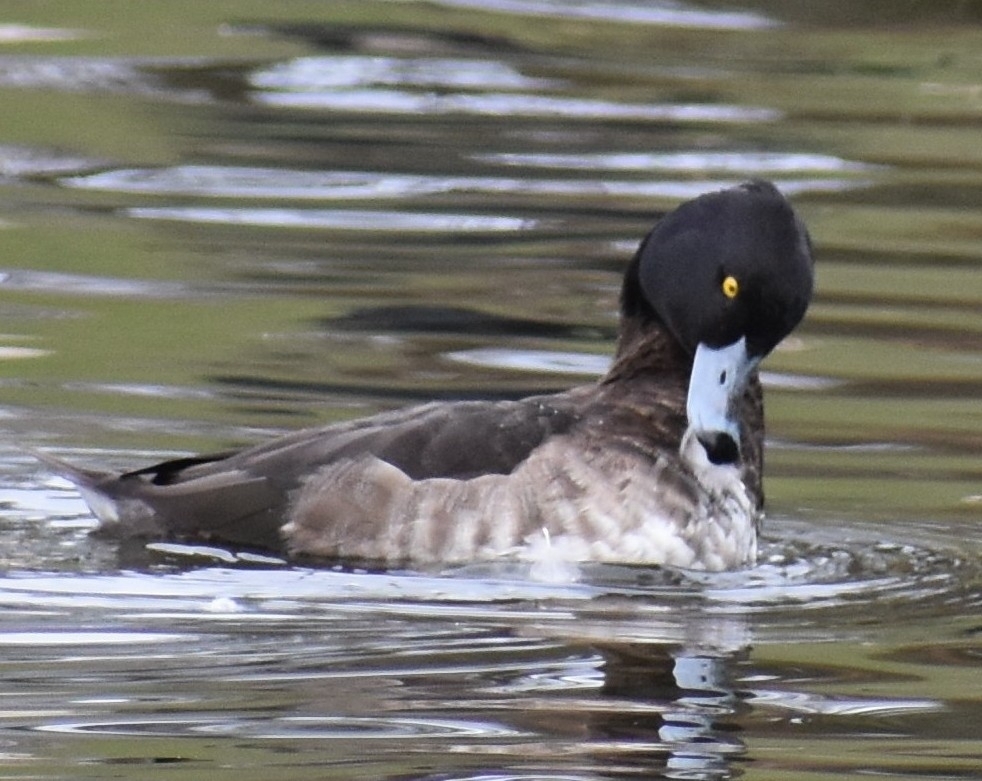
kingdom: Animalia
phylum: Chordata
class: Aves
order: Anseriformes
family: Anatidae
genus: Aythya
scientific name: Aythya fuligula
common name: Tufted duck
